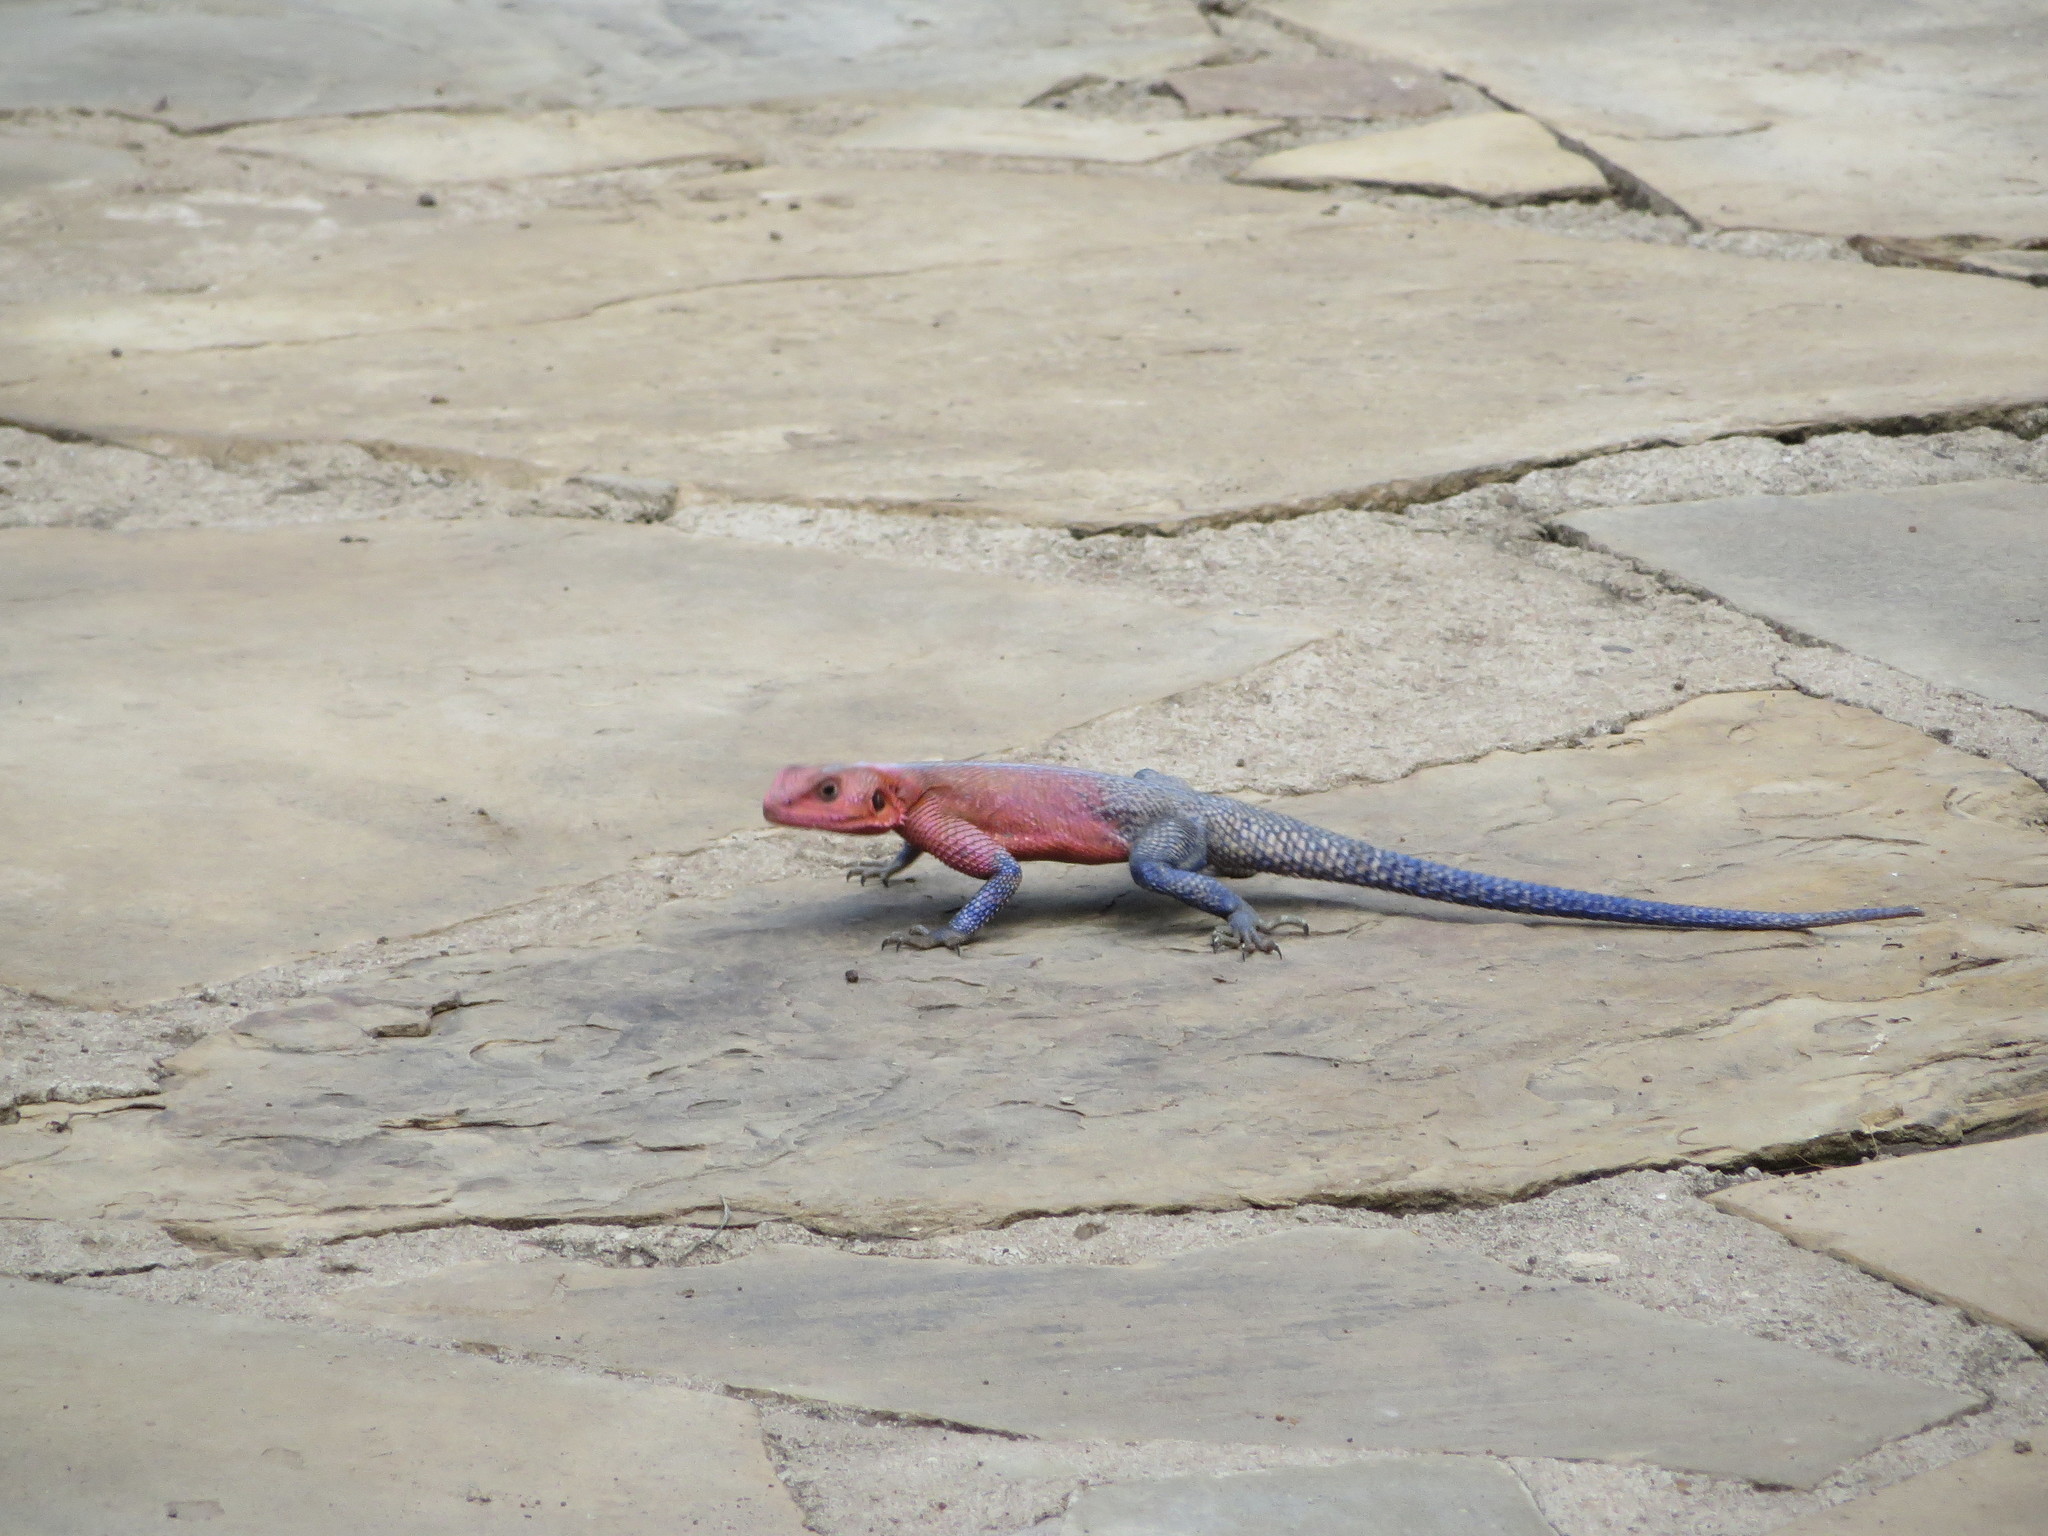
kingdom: Animalia
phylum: Chordata
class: Squamata
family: Agamidae
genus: Agama
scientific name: Agama mwanzae
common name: Mwanza flat-headed agama
